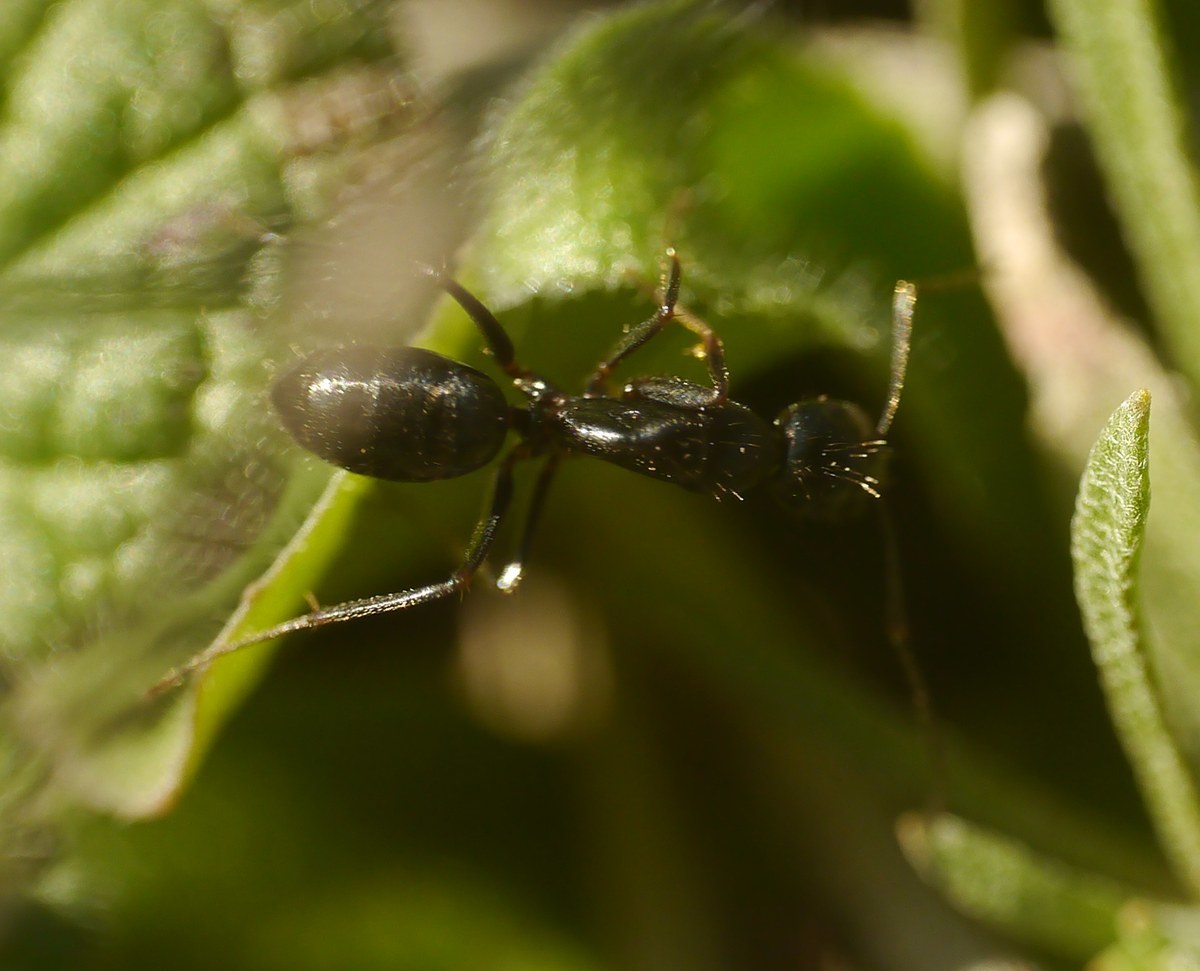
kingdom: Animalia
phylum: Arthropoda
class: Insecta
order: Hymenoptera
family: Formicidae
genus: Camponotus
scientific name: Camponotus aethiops
